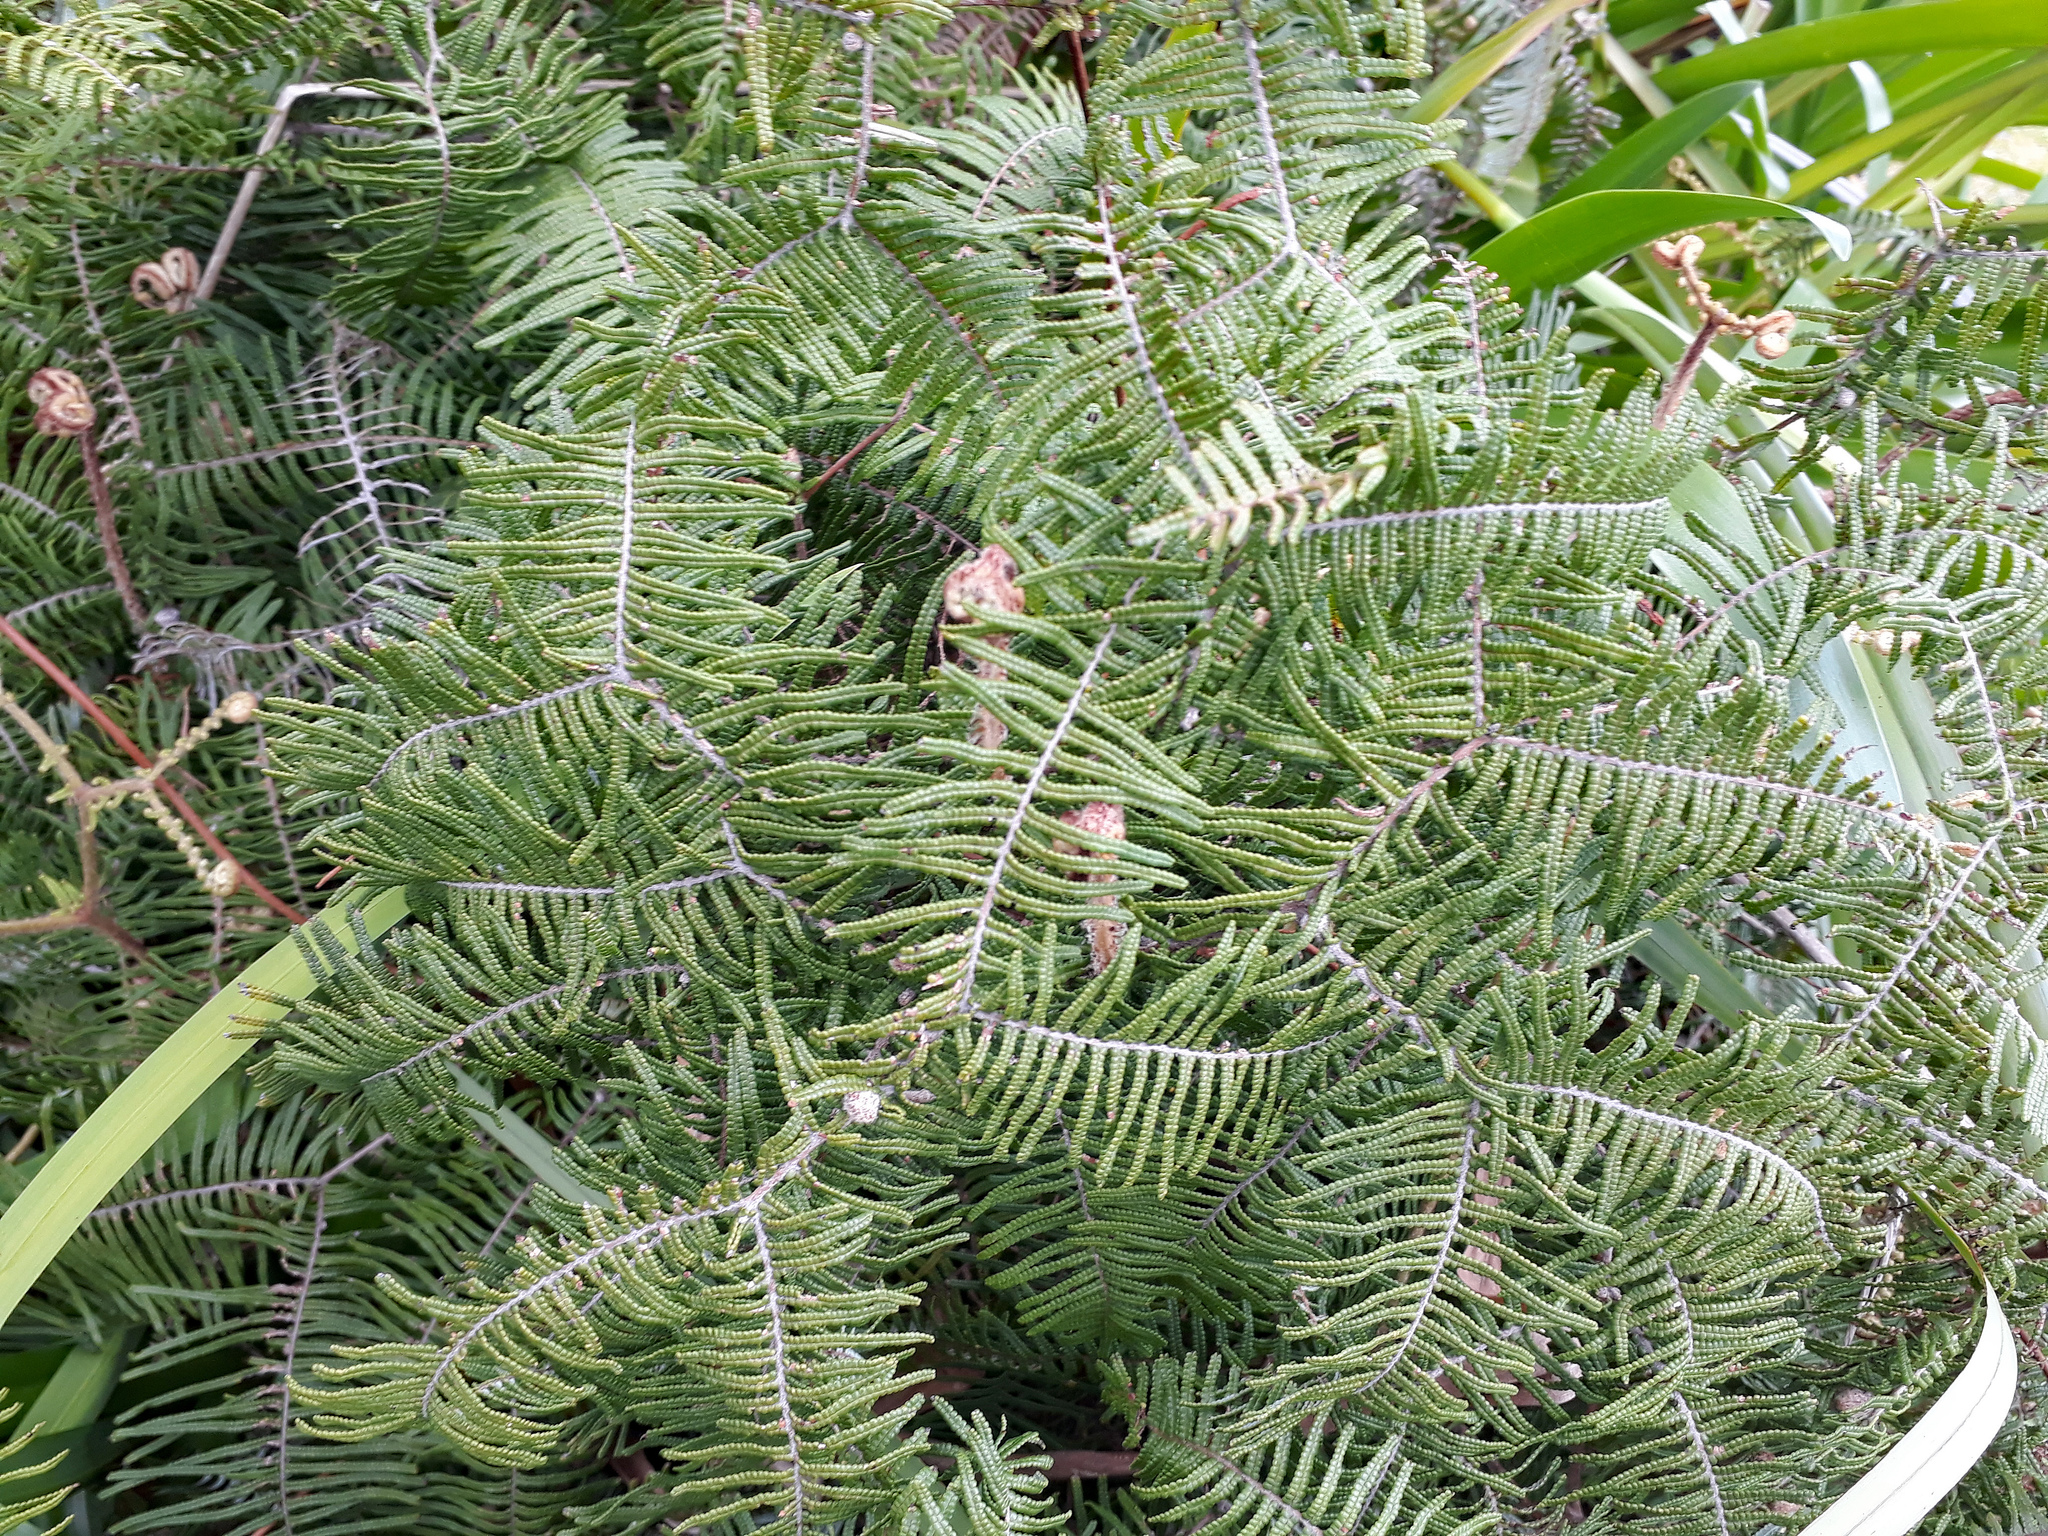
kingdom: Plantae
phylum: Tracheophyta
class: Polypodiopsida
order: Gleicheniales
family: Gleicheniaceae
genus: Gleichenia
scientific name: Gleichenia dicarpa
